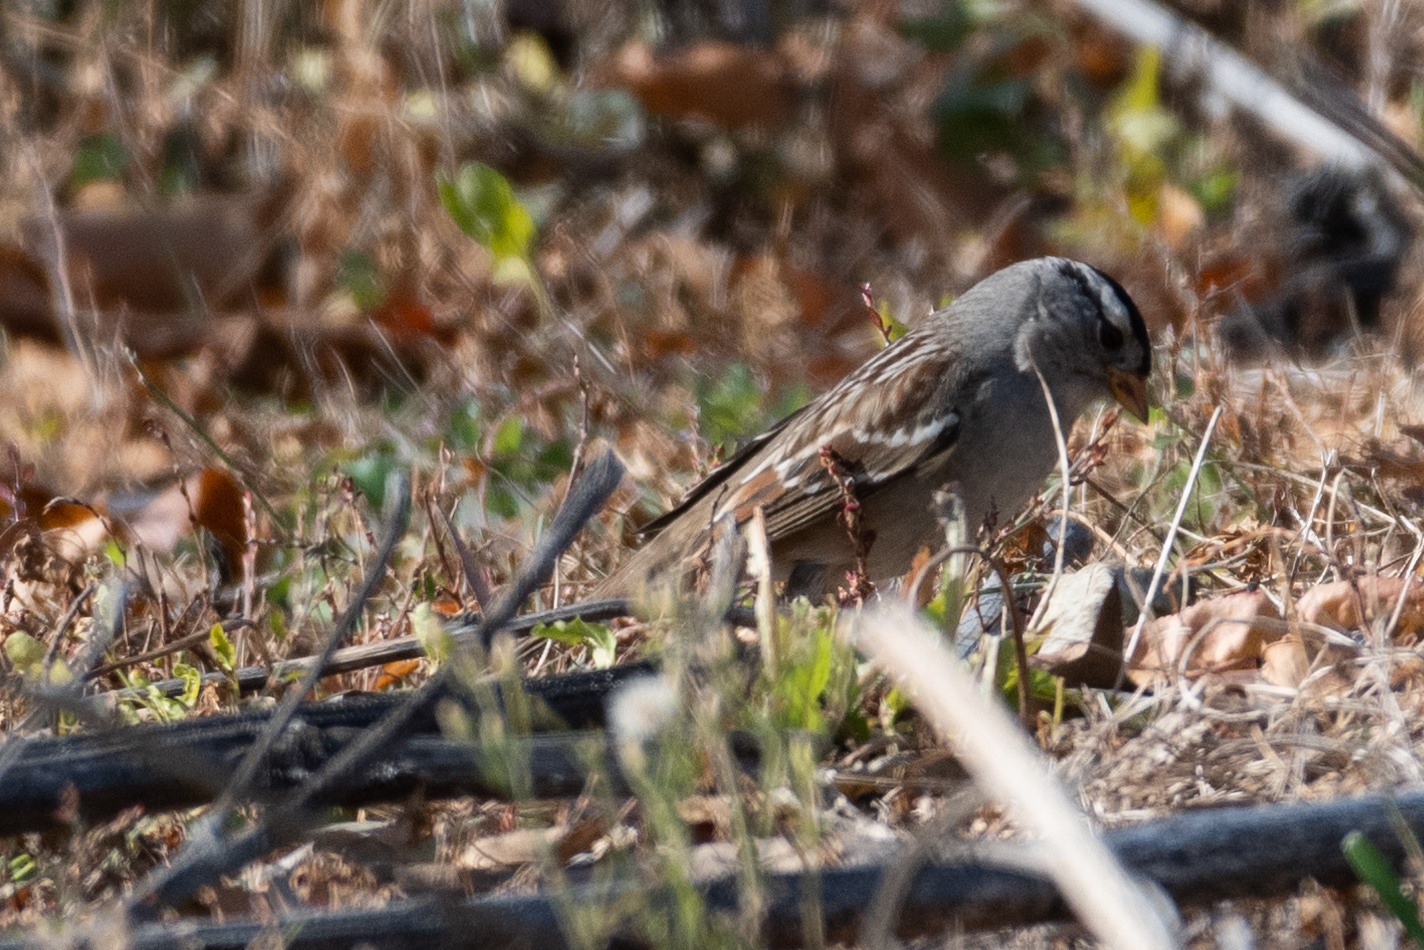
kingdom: Animalia
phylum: Chordata
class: Aves
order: Passeriformes
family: Passerellidae
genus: Zonotrichia
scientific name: Zonotrichia leucophrys
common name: White-crowned sparrow
